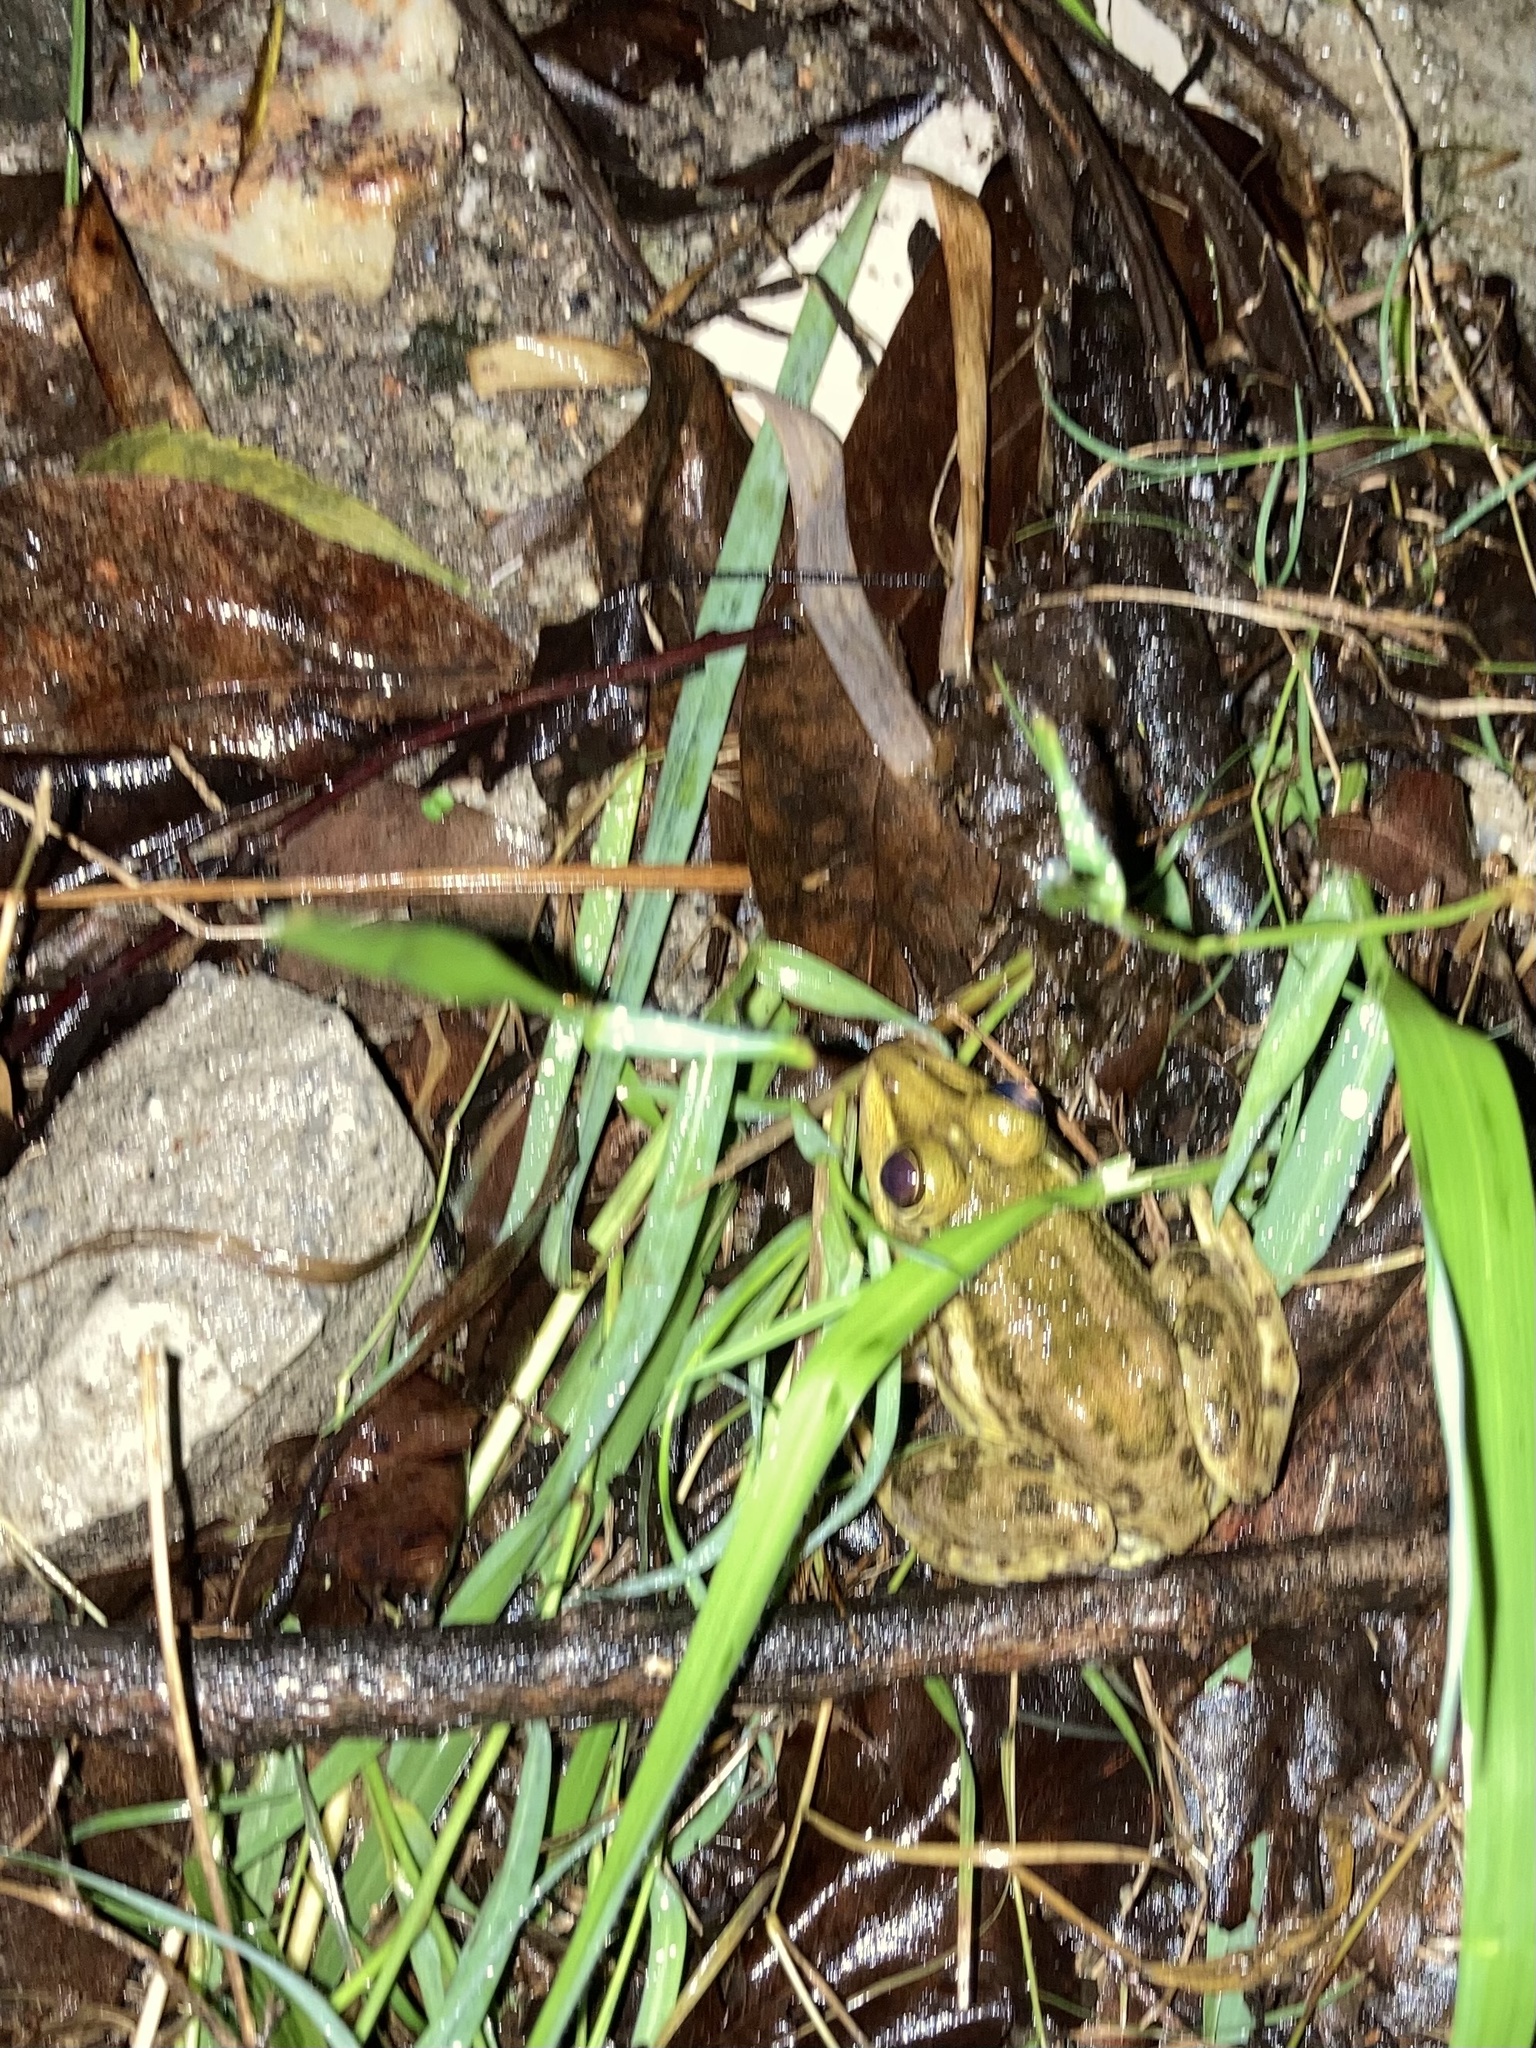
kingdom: Animalia
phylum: Chordata
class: Amphibia
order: Anura
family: Dicroglossidae
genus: Hoplobatrachus
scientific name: Hoplobatrachus tigerinus
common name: Indian bullfrog
